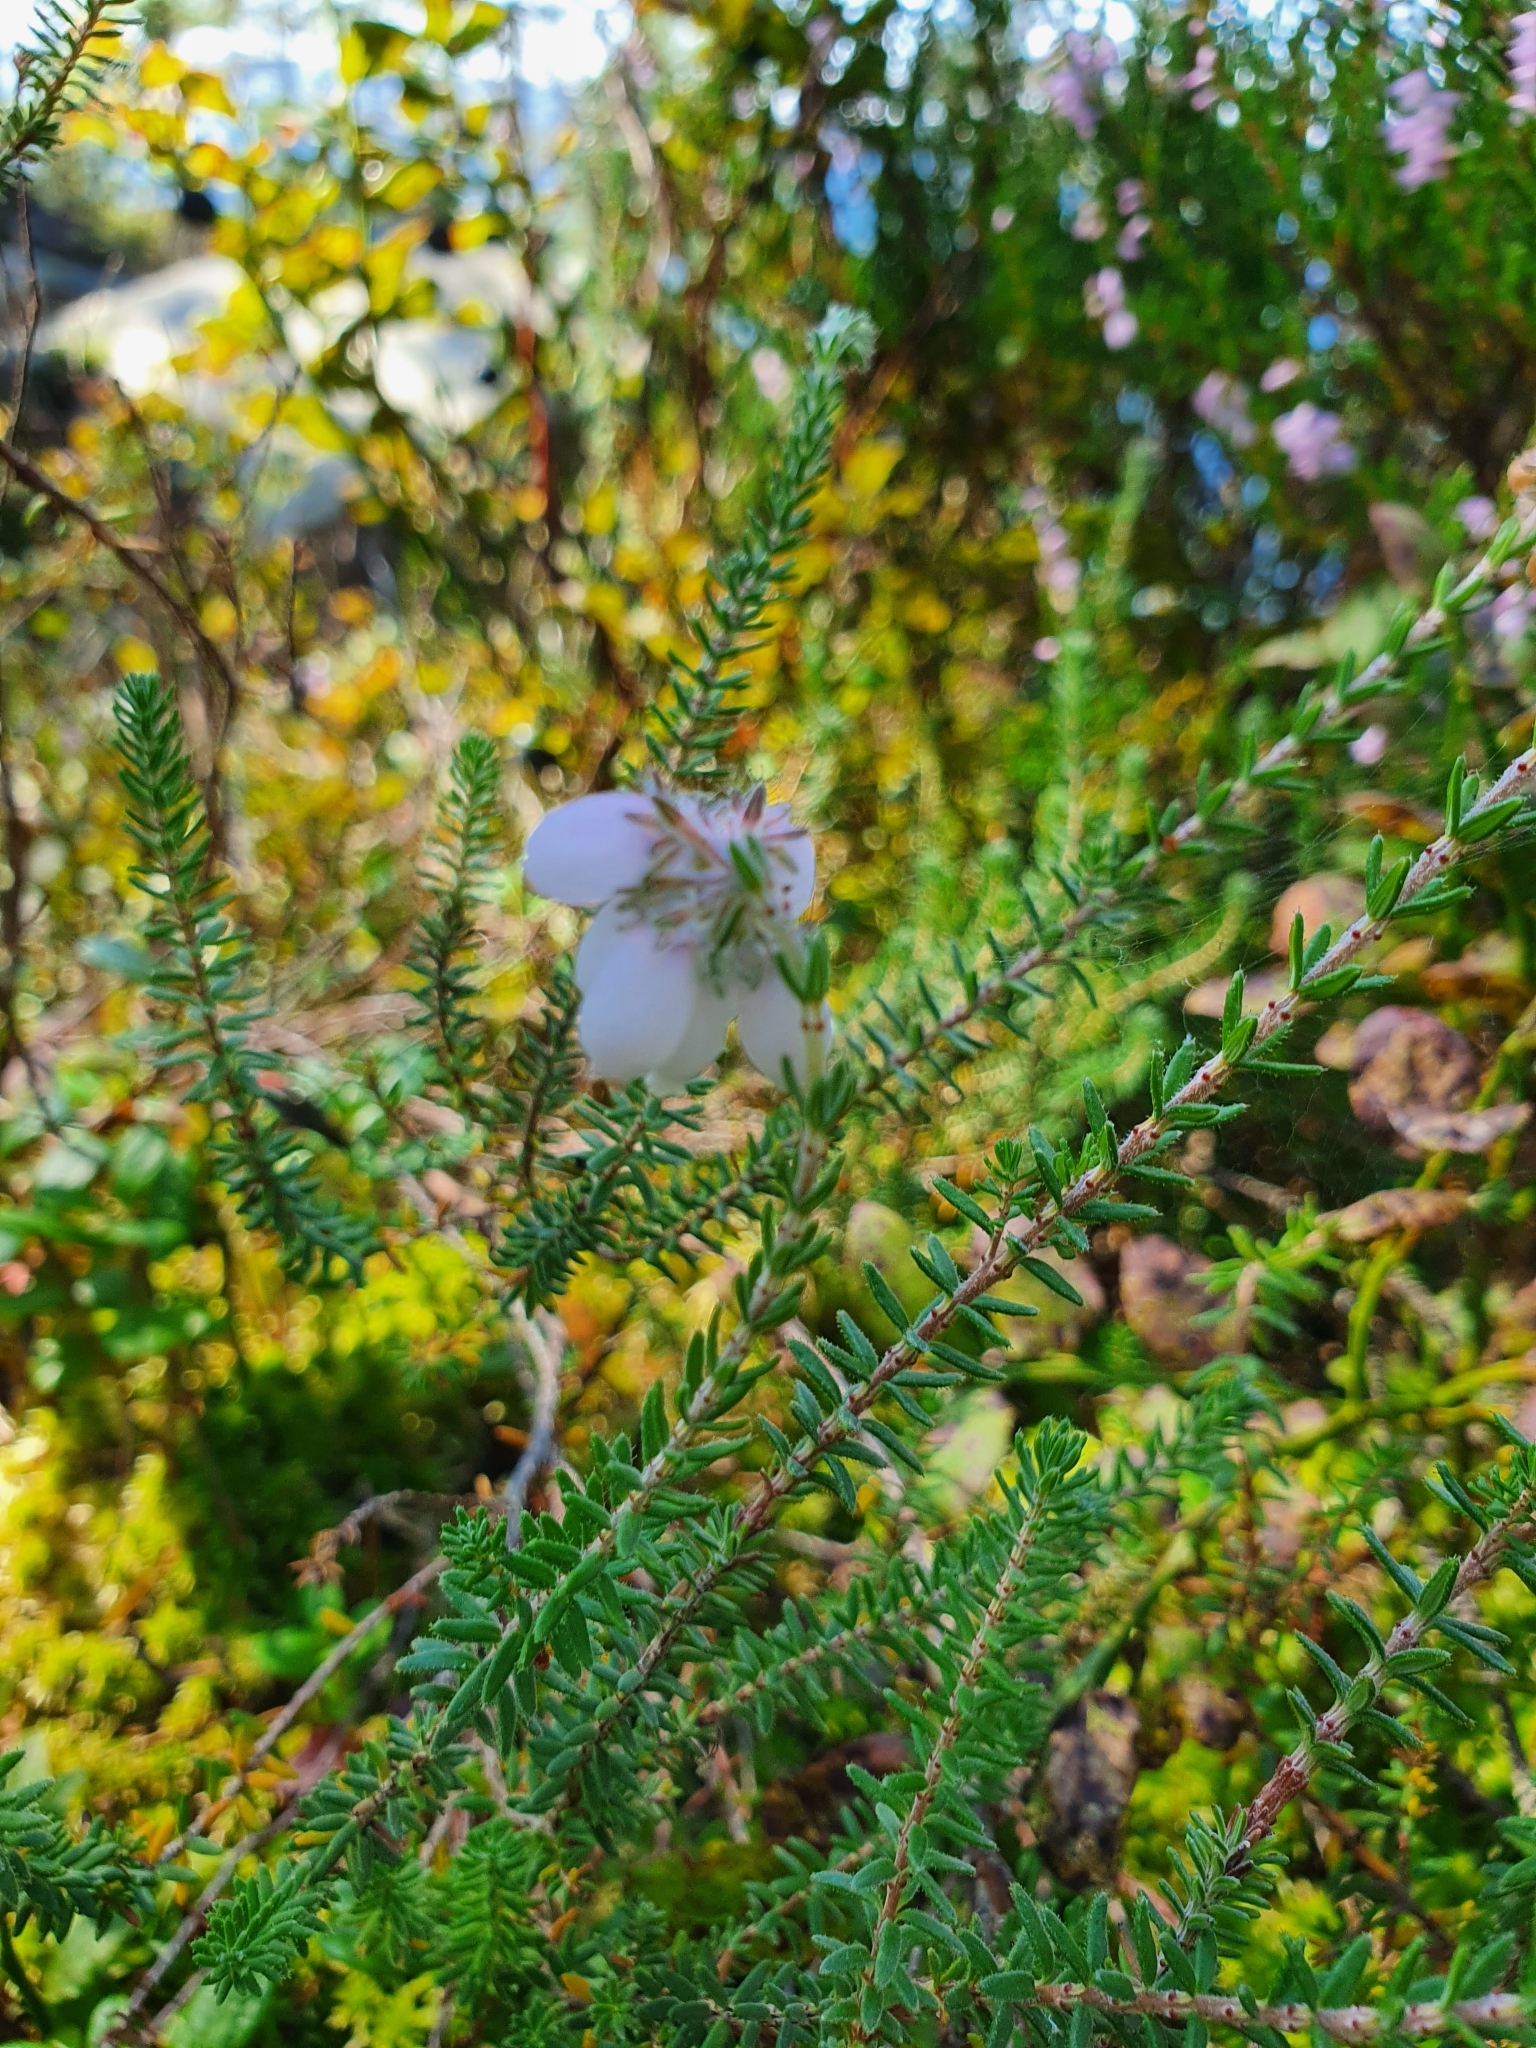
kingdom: Plantae
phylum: Tracheophyta
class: Magnoliopsida
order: Ericales
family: Ericaceae
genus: Erica
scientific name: Erica tetralix
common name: Cross-leaved heath
